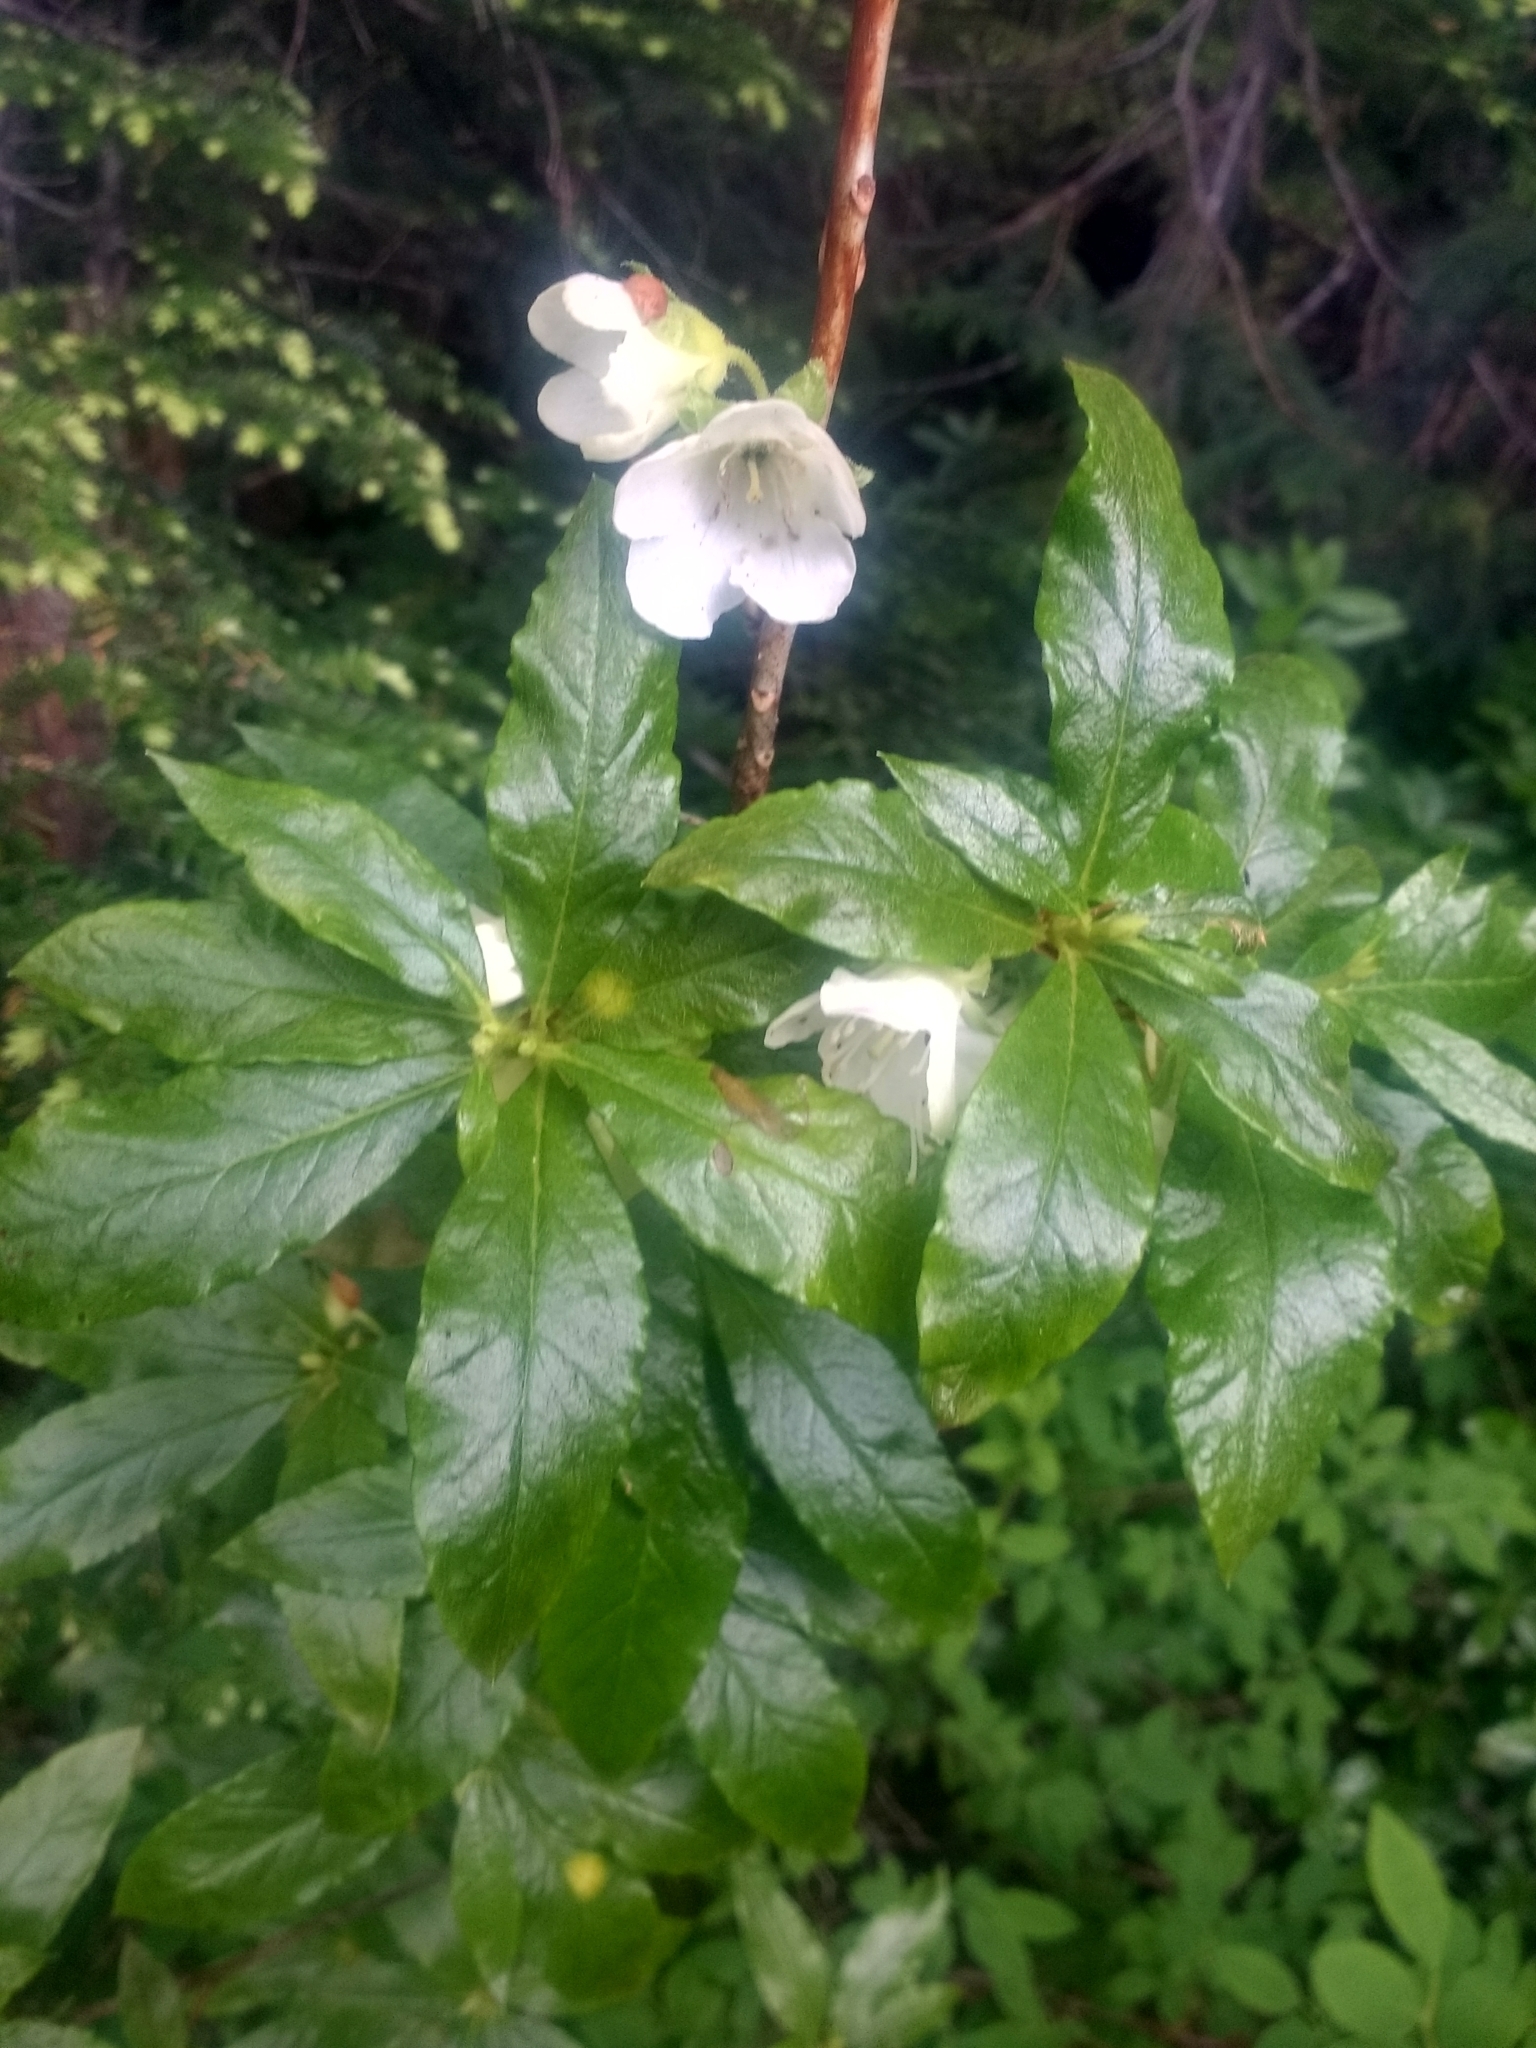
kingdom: Plantae
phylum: Tracheophyta
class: Magnoliopsida
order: Ericales
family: Ericaceae
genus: Rhododendron
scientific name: Rhododendron albiflorum
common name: White rhododendron
